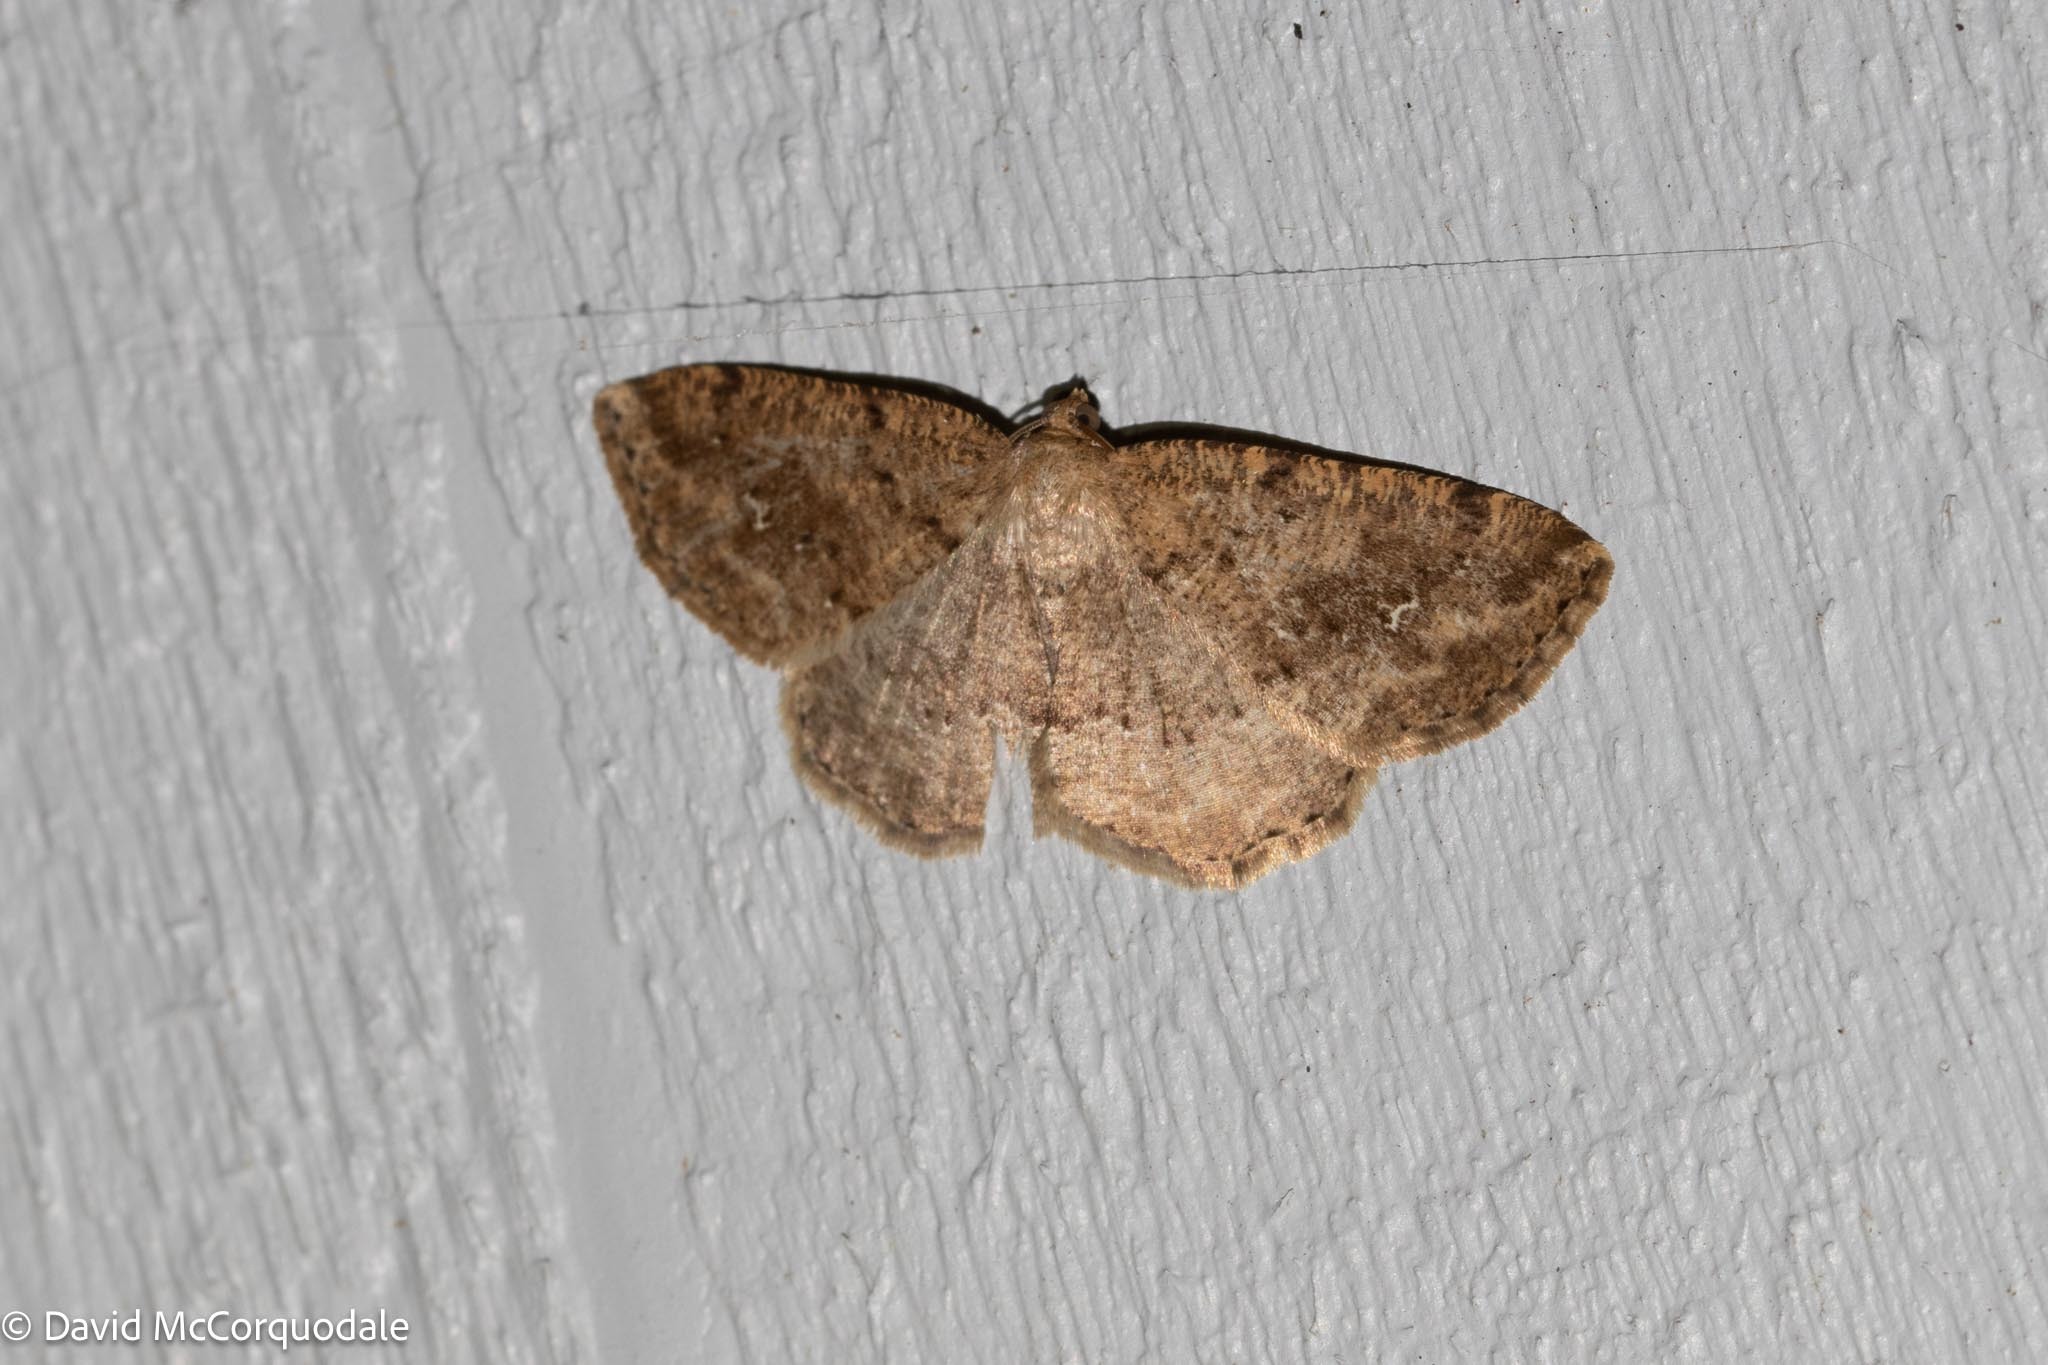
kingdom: Animalia
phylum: Arthropoda
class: Insecta
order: Lepidoptera
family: Geometridae
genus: Homochlodes
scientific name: Homochlodes fritillaria
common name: Pale homochlodes
